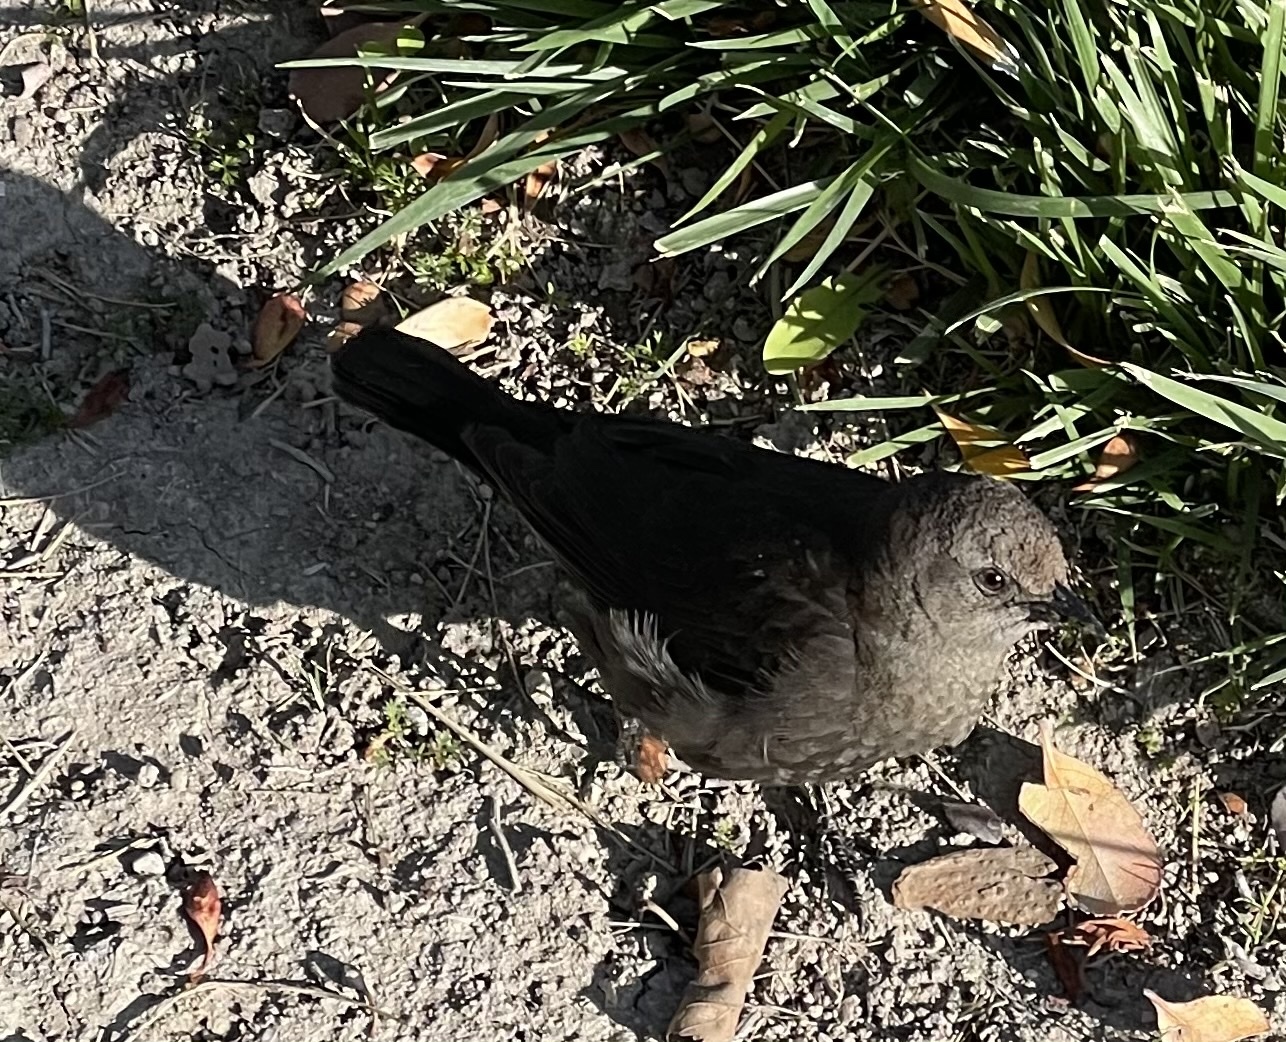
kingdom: Animalia
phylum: Chordata
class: Aves
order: Passeriformes
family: Icteridae
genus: Euphagus
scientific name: Euphagus cyanocephalus
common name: Brewer's blackbird
